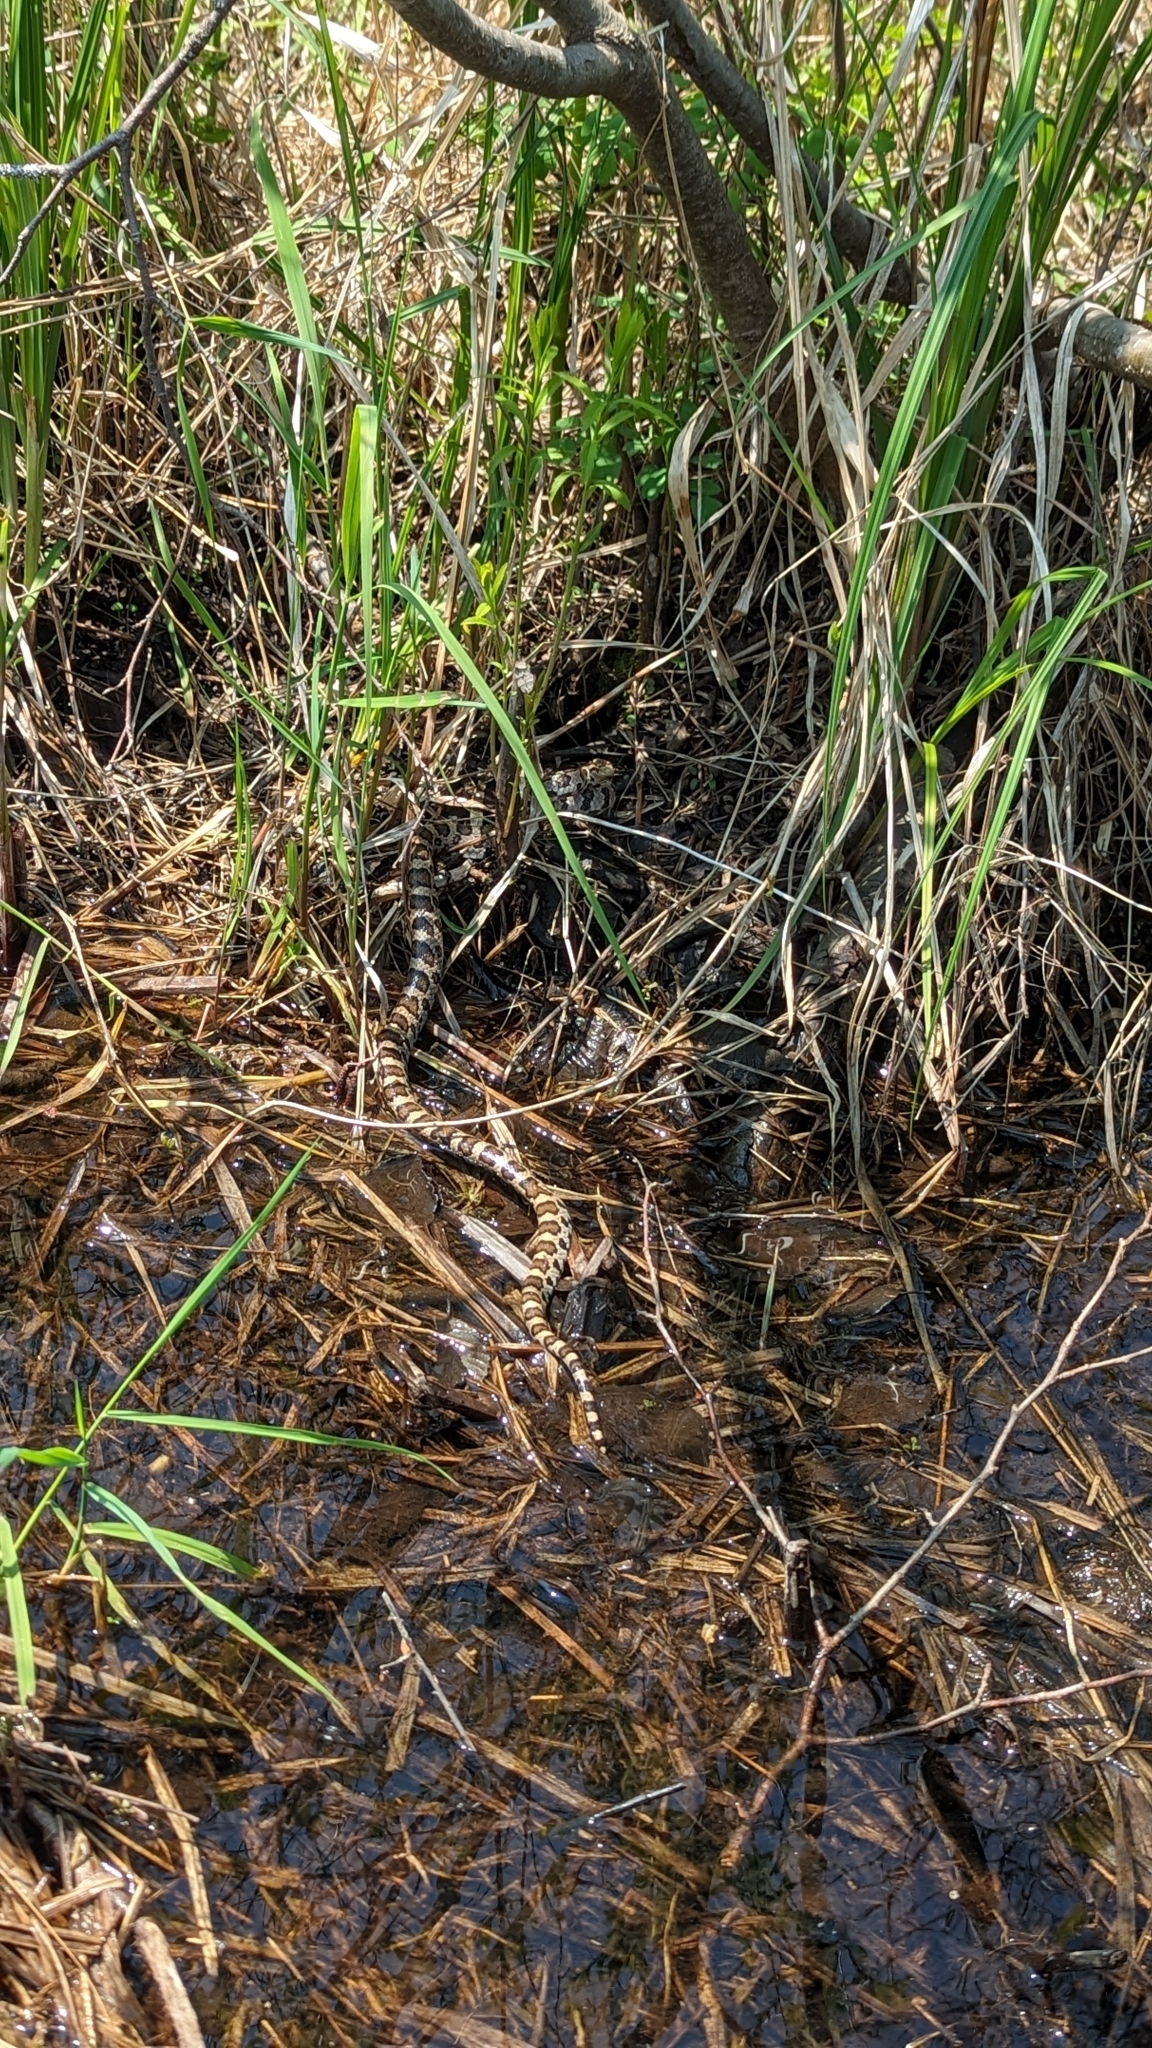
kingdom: Animalia
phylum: Chordata
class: Squamata
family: Colubridae
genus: Lampropeltis
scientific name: Lampropeltis triangulum
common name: Eastern milksnake
